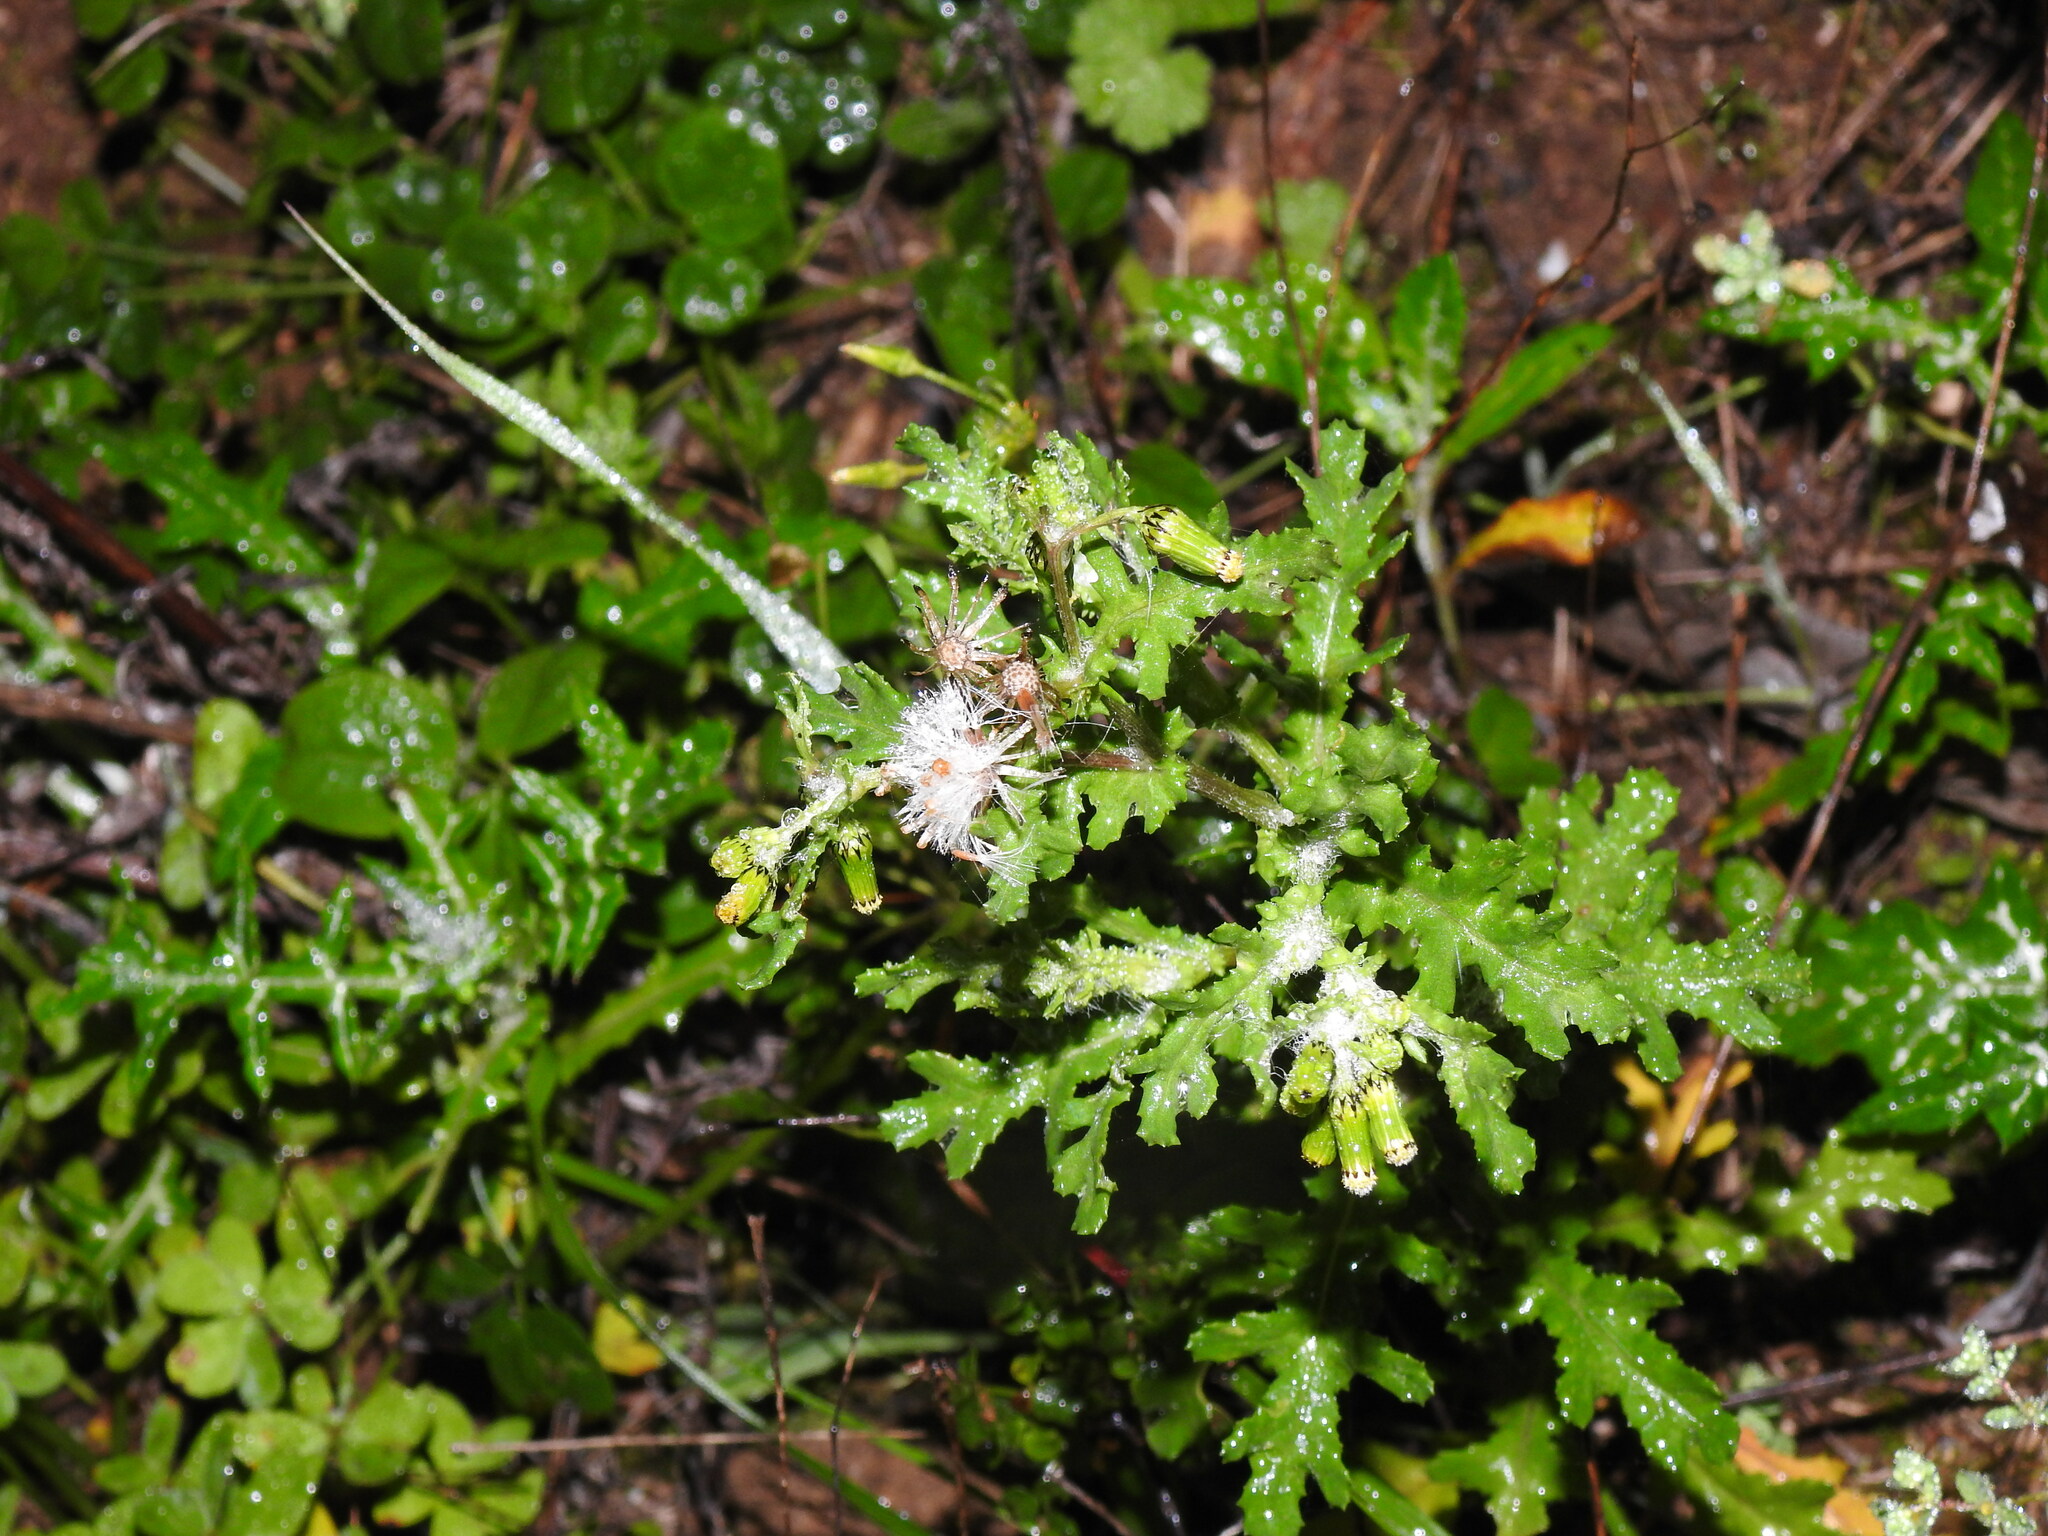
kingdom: Plantae
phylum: Tracheophyta
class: Magnoliopsida
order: Asterales
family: Asteraceae
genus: Senecio
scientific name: Senecio vulgaris
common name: Old-man-in-the-spring
